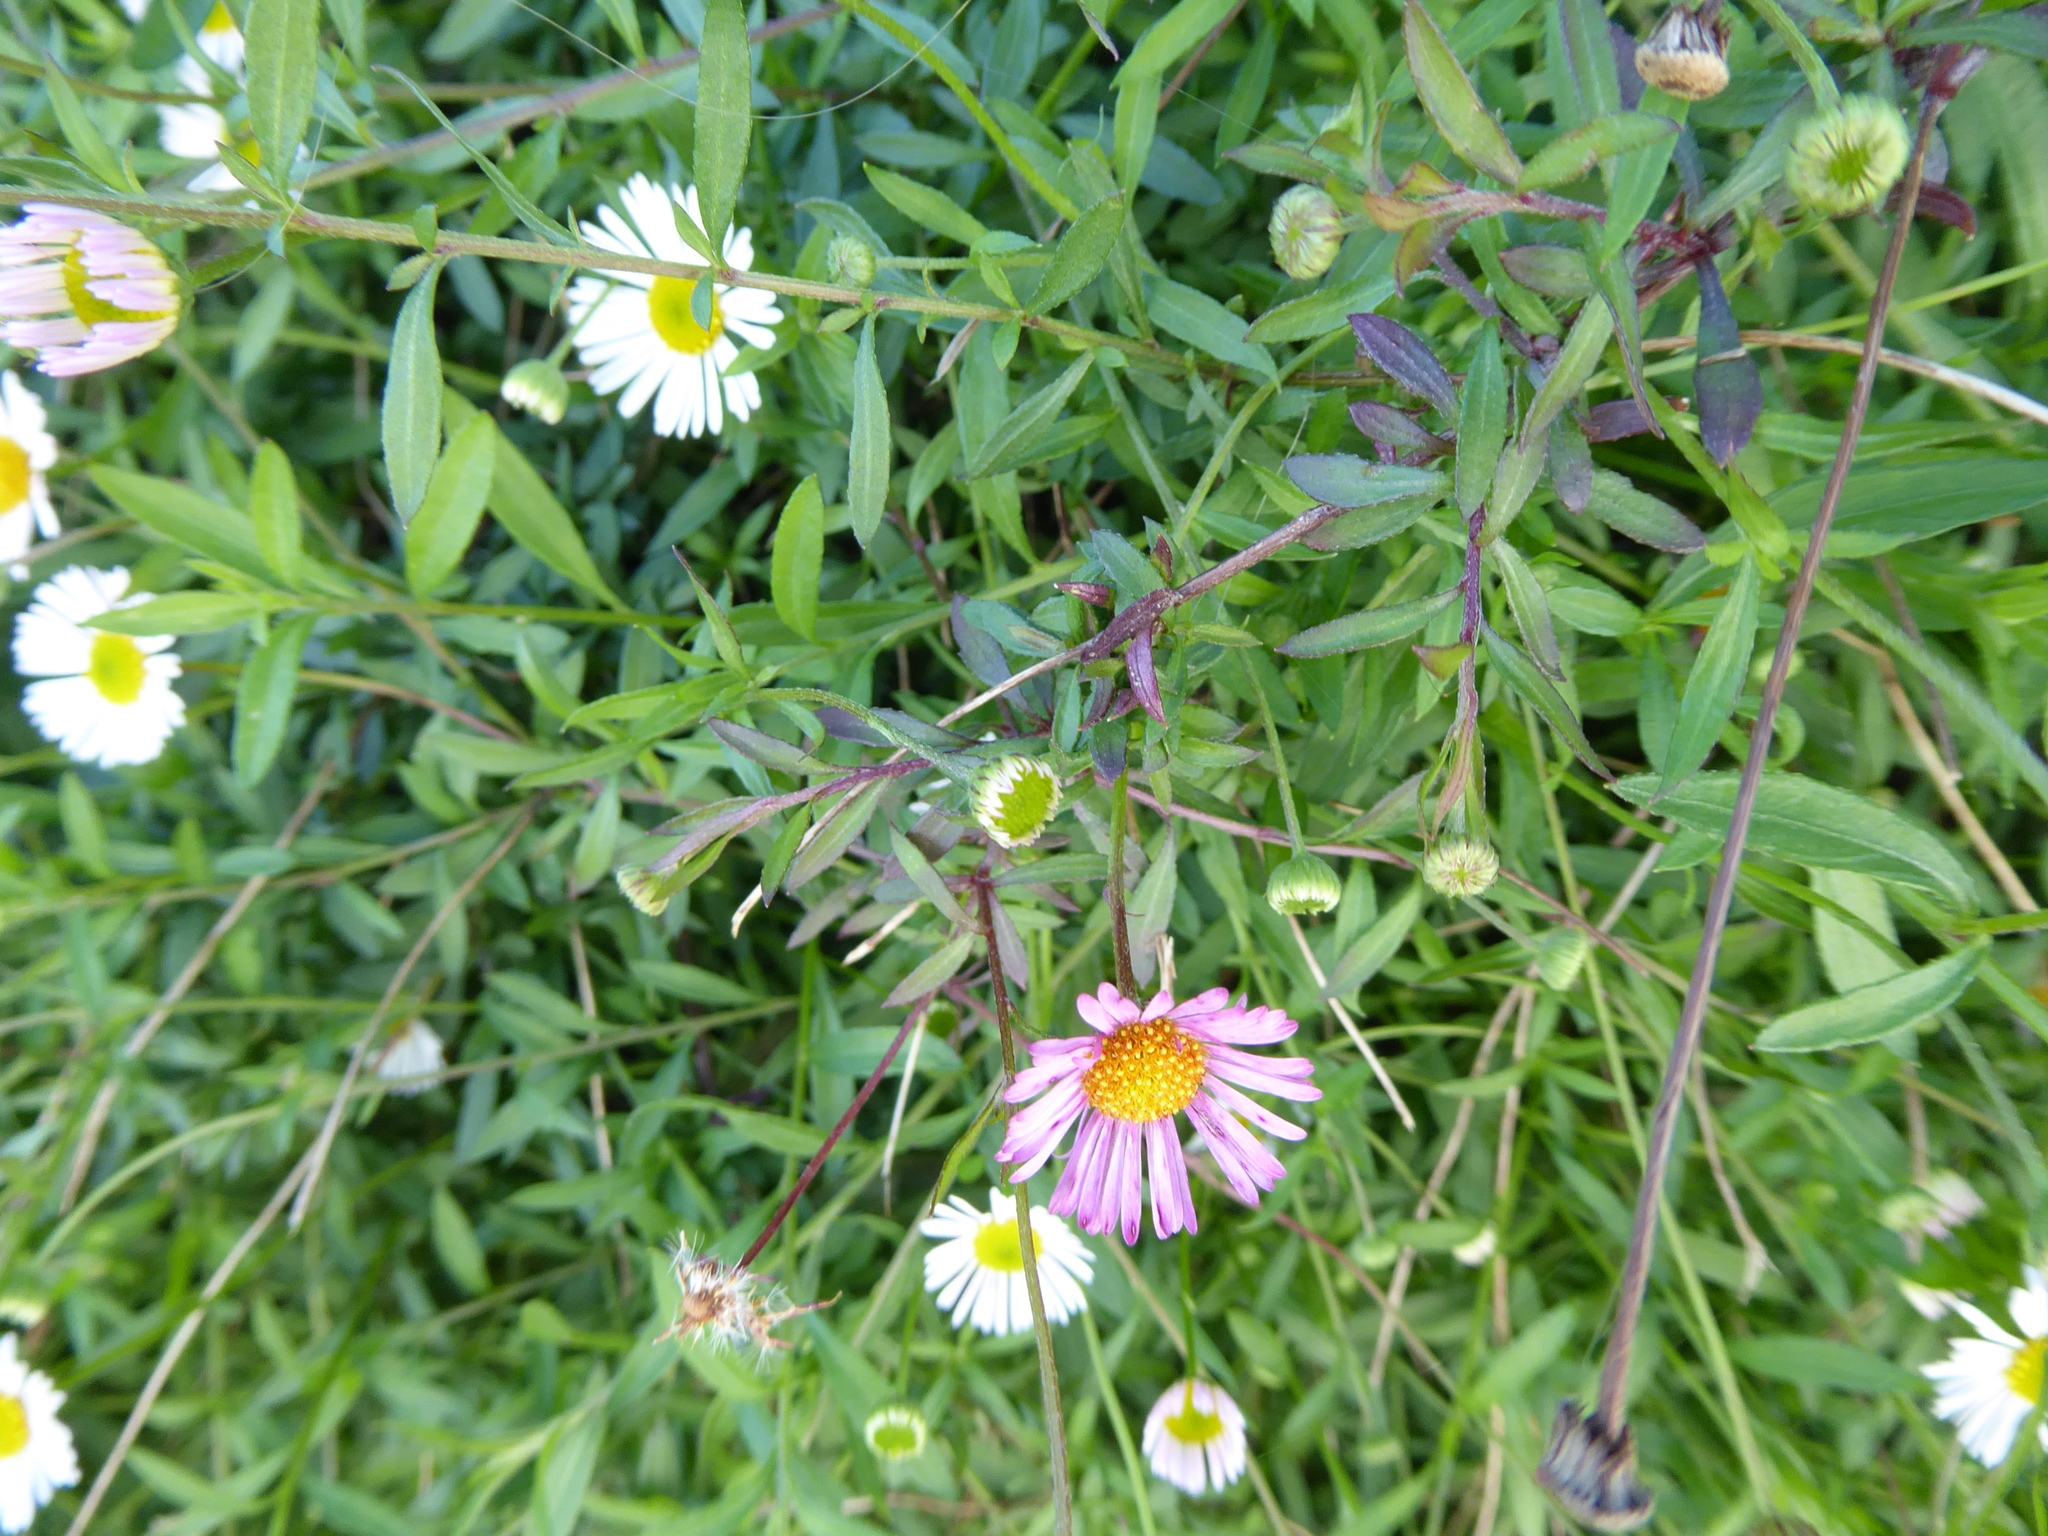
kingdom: Plantae
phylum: Tracheophyta
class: Magnoliopsida
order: Asterales
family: Asteraceae
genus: Erigeron
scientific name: Erigeron karvinskianus
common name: Mexican fleabane
